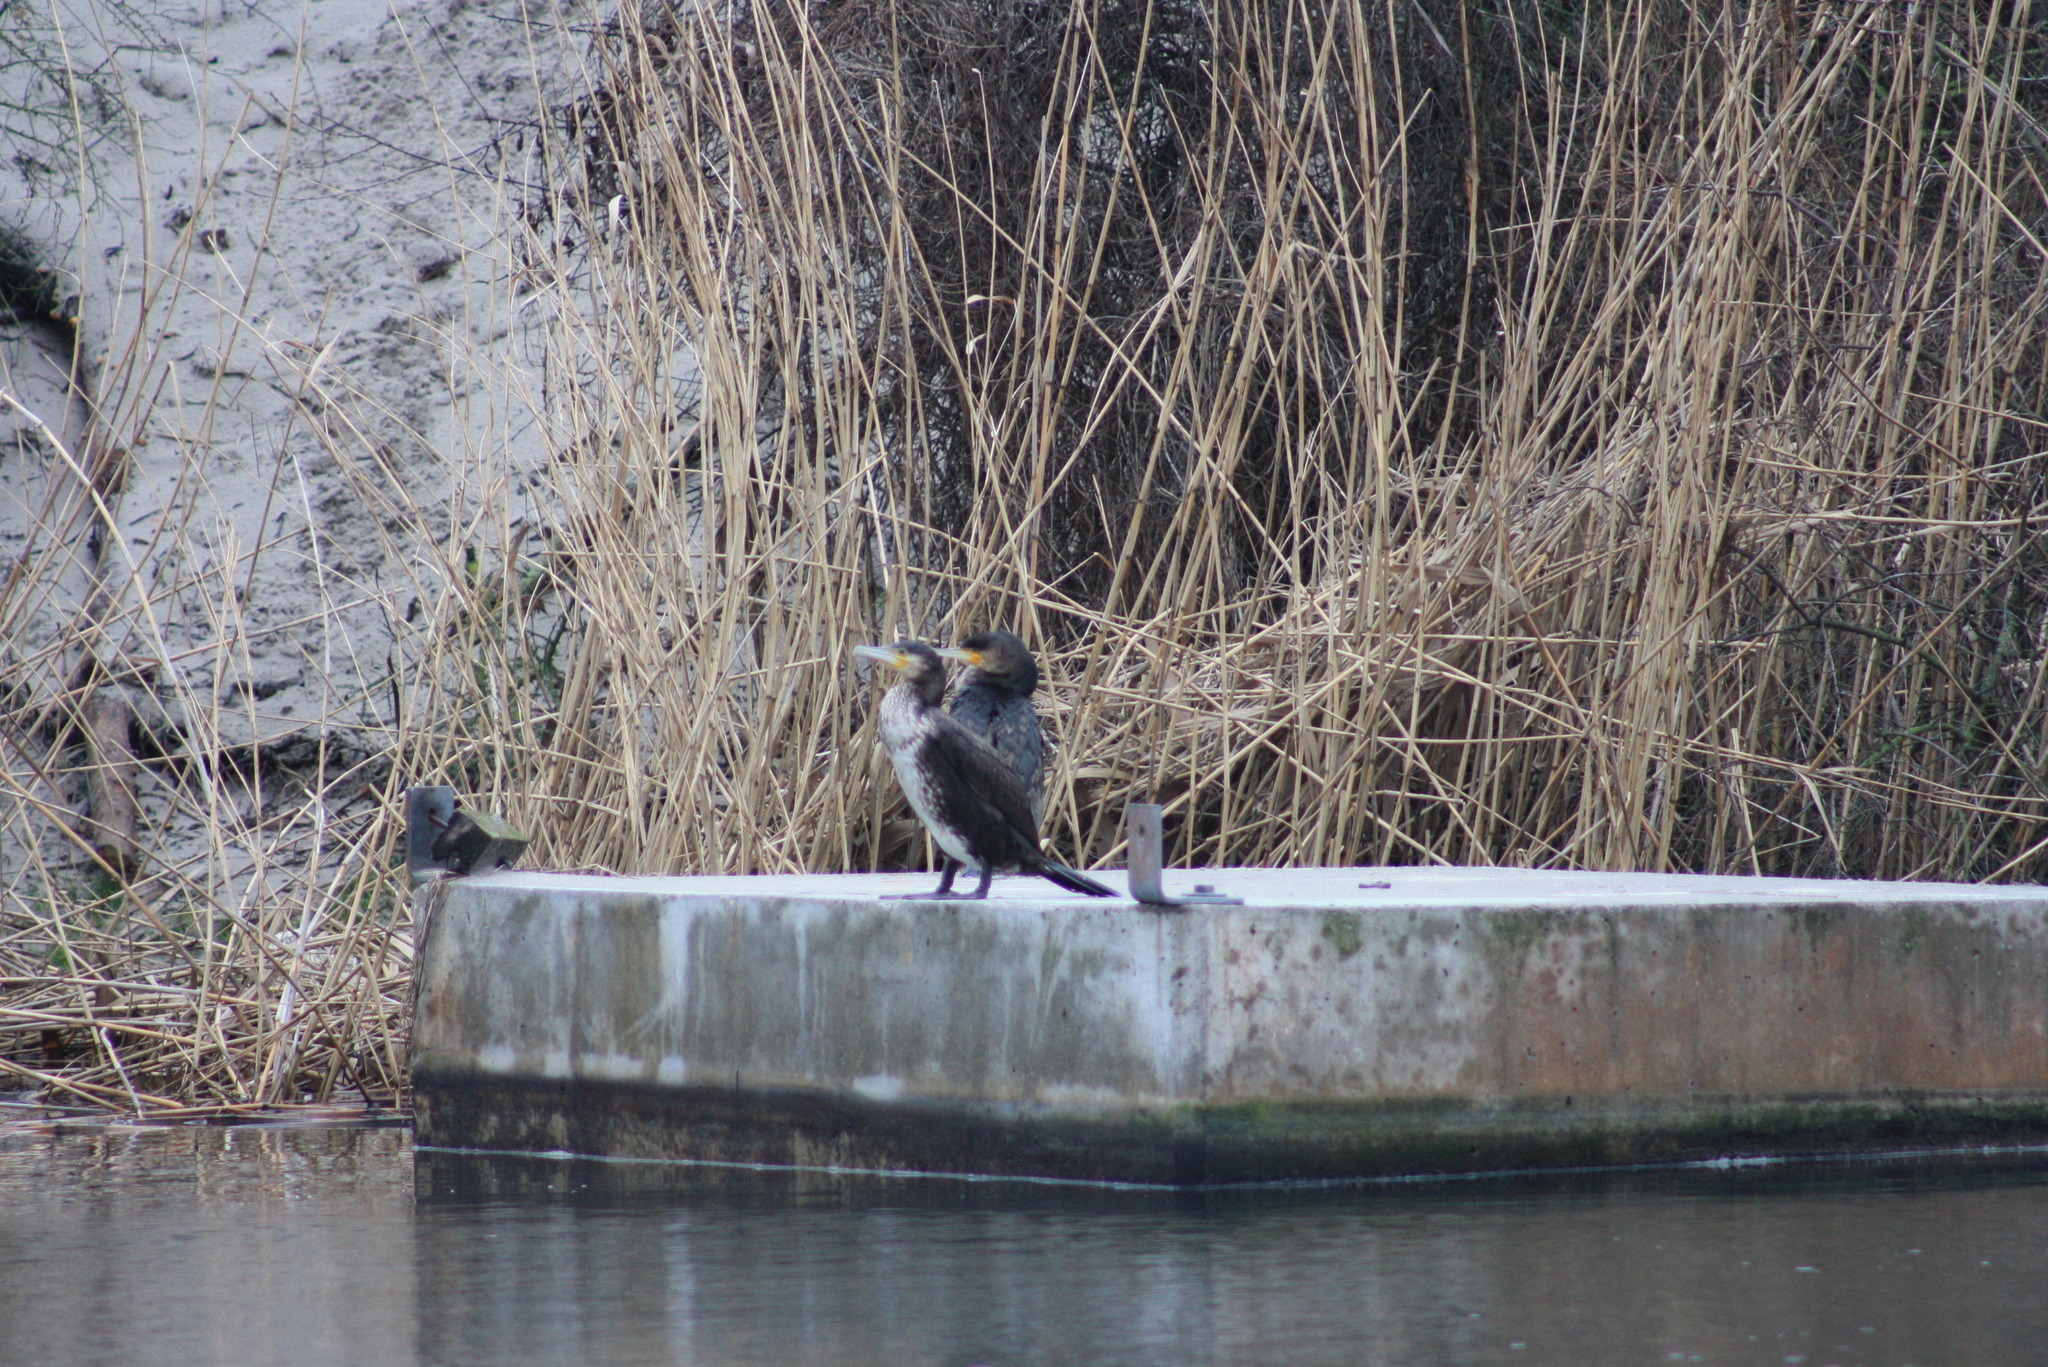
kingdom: Animalia
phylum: Chordata
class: Aves
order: Suliformes
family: Phalacrocoracidae
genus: Phalacrocorax
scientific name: Phalacrocorax carbo
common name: Great cormorant
